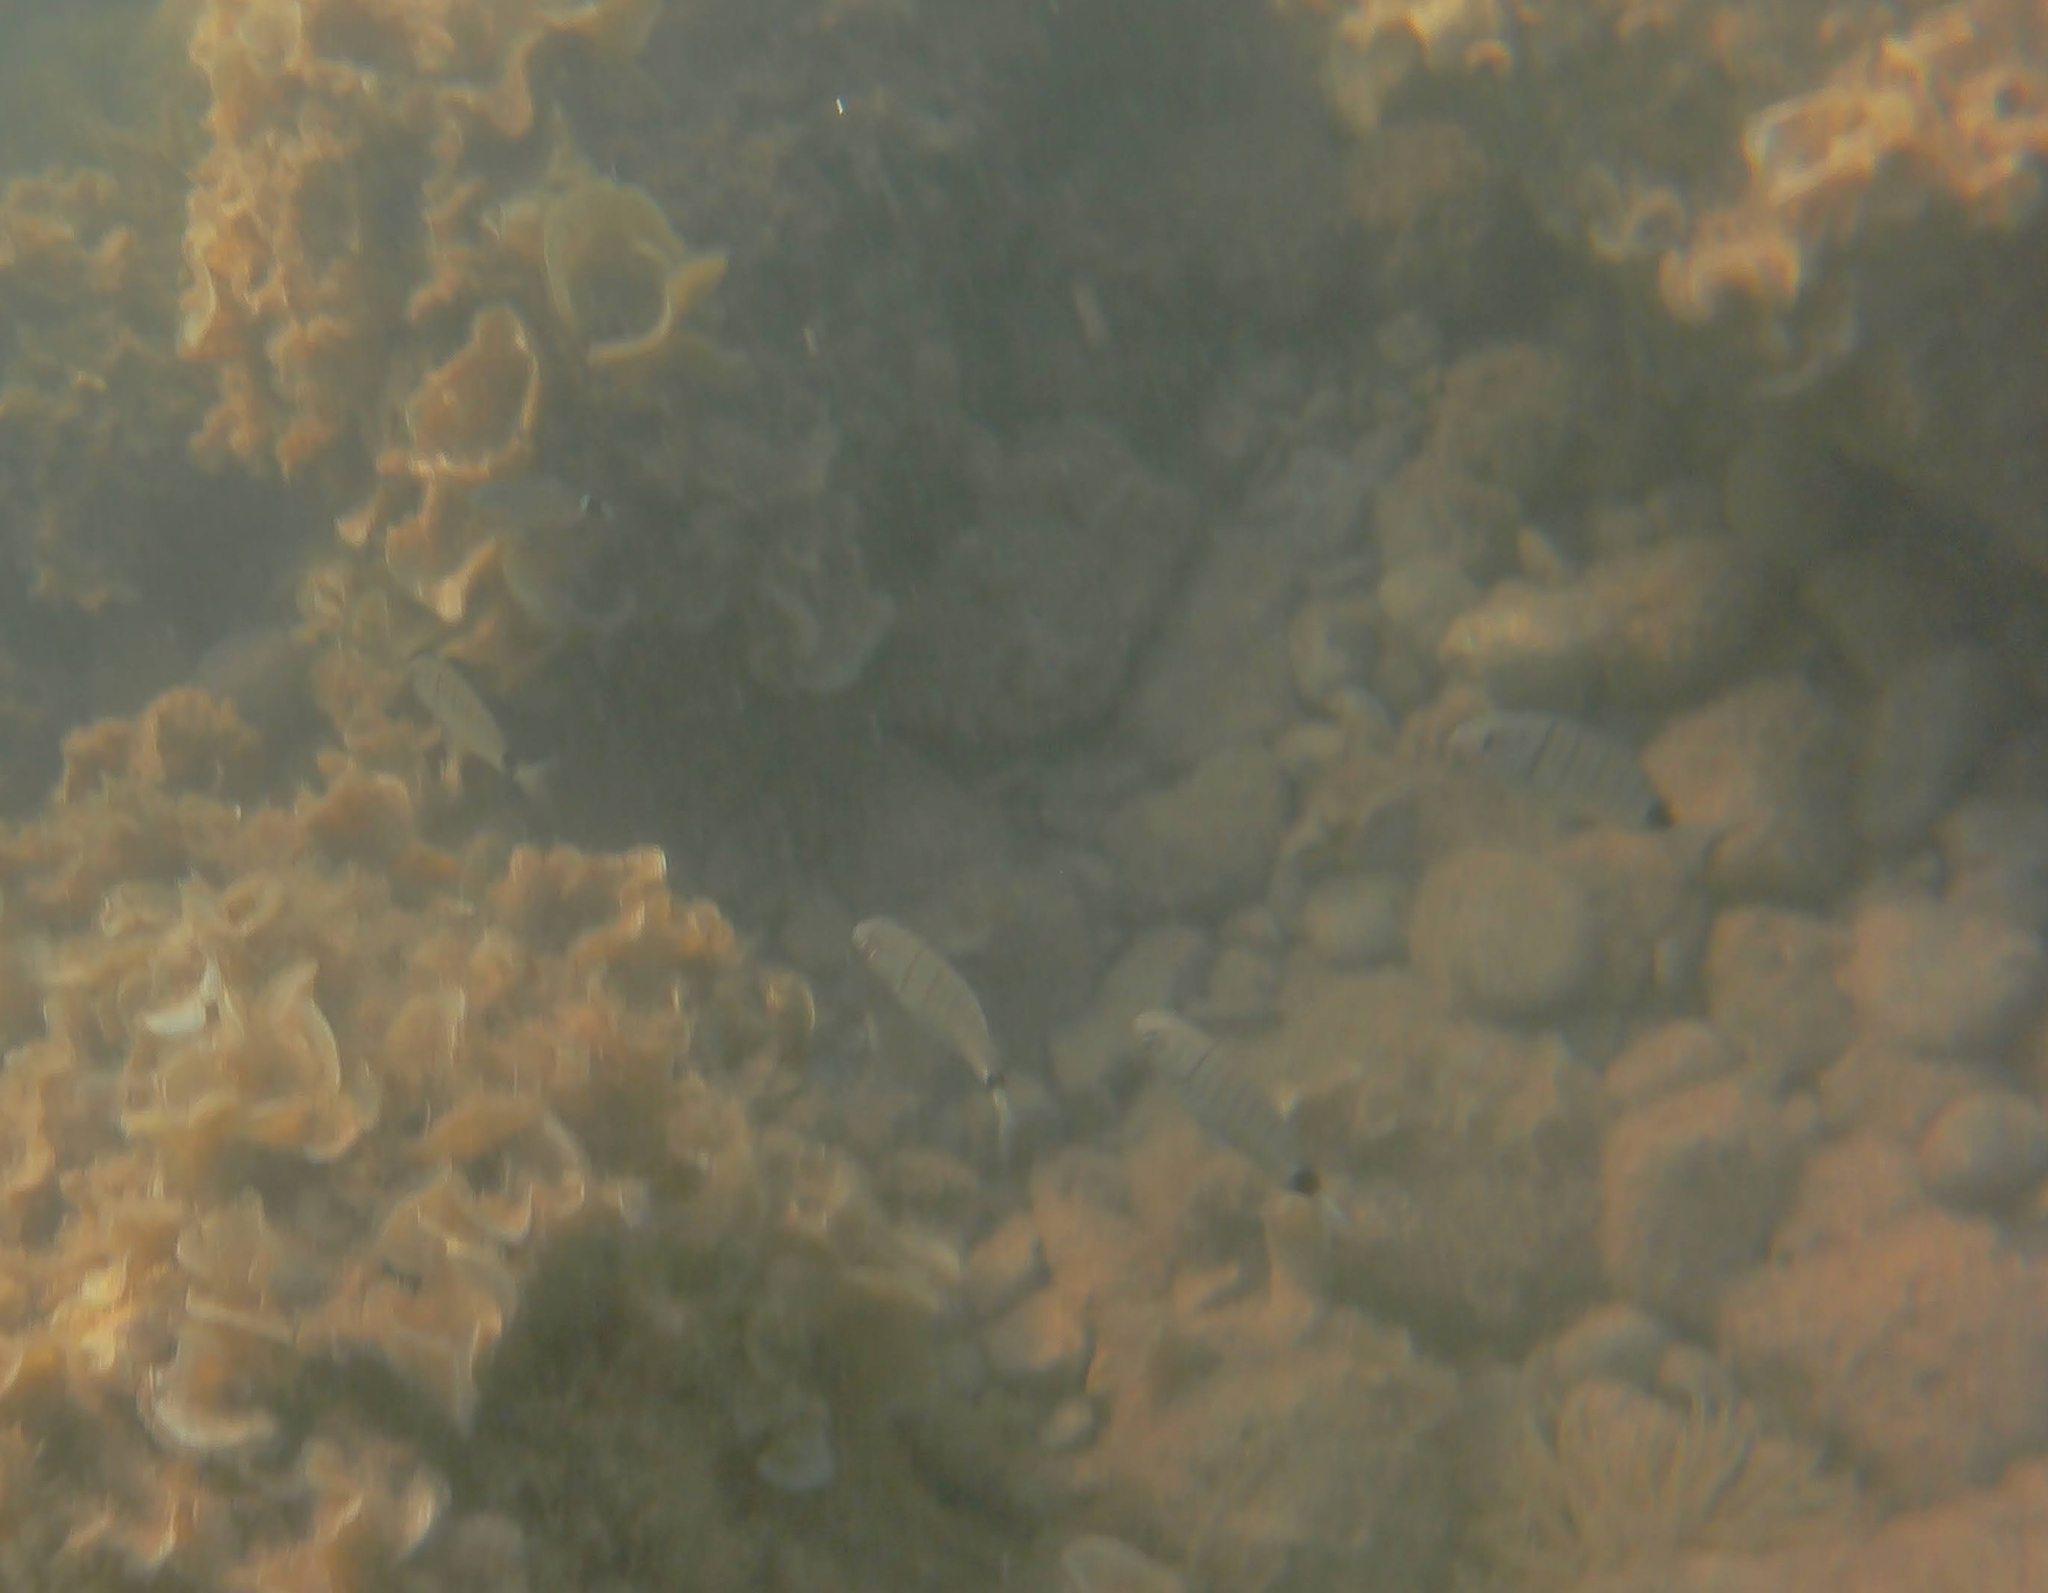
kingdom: Animalia
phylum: Chordata
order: Perciformes
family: Sparidae
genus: Diplodus
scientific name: Diplodus sargus
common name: White seabream
